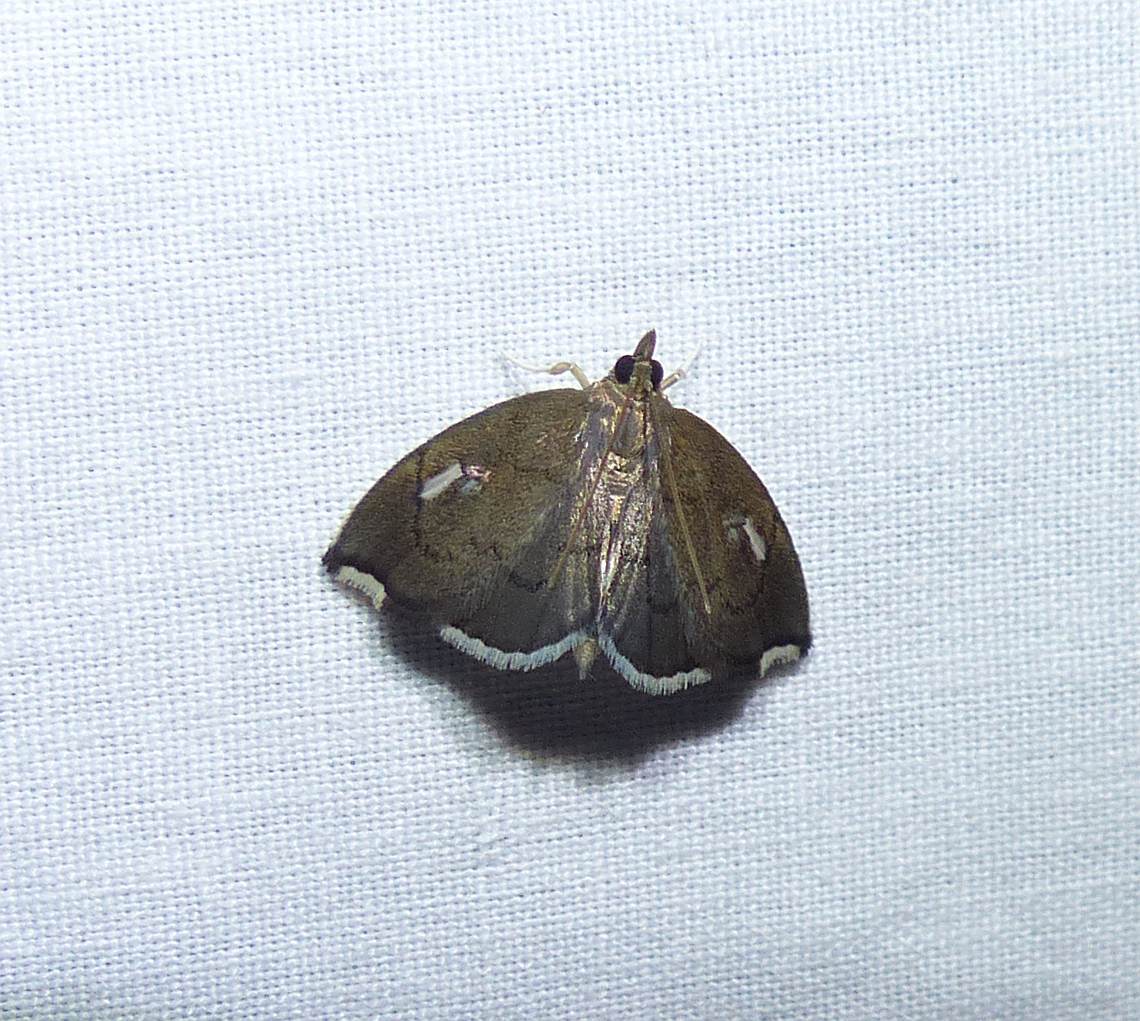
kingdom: Animalia
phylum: Arthropoda
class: Insecta
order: Lepidoptera
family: Crambidae
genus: Perispasta
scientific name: Perispasta caeculalis
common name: Titian peale's moth
